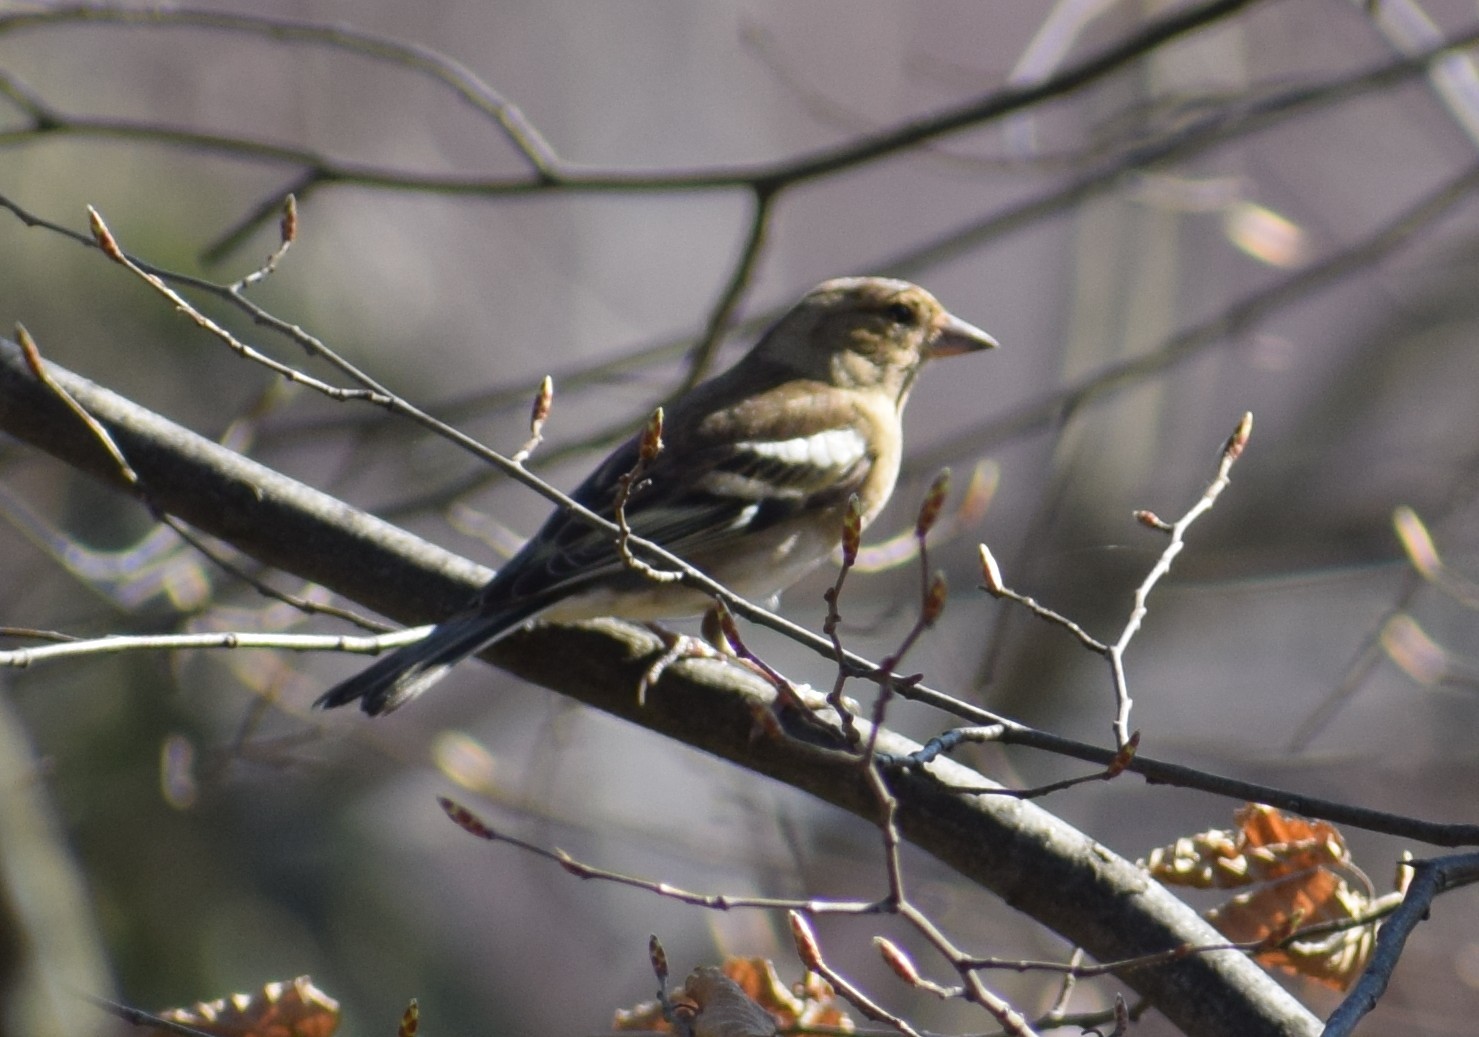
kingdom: Animalia
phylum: Chordata
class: Aves
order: Passeriformes
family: Fringillidae
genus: Fringilla
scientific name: Fringilla coelebs
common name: Common chaffinch
